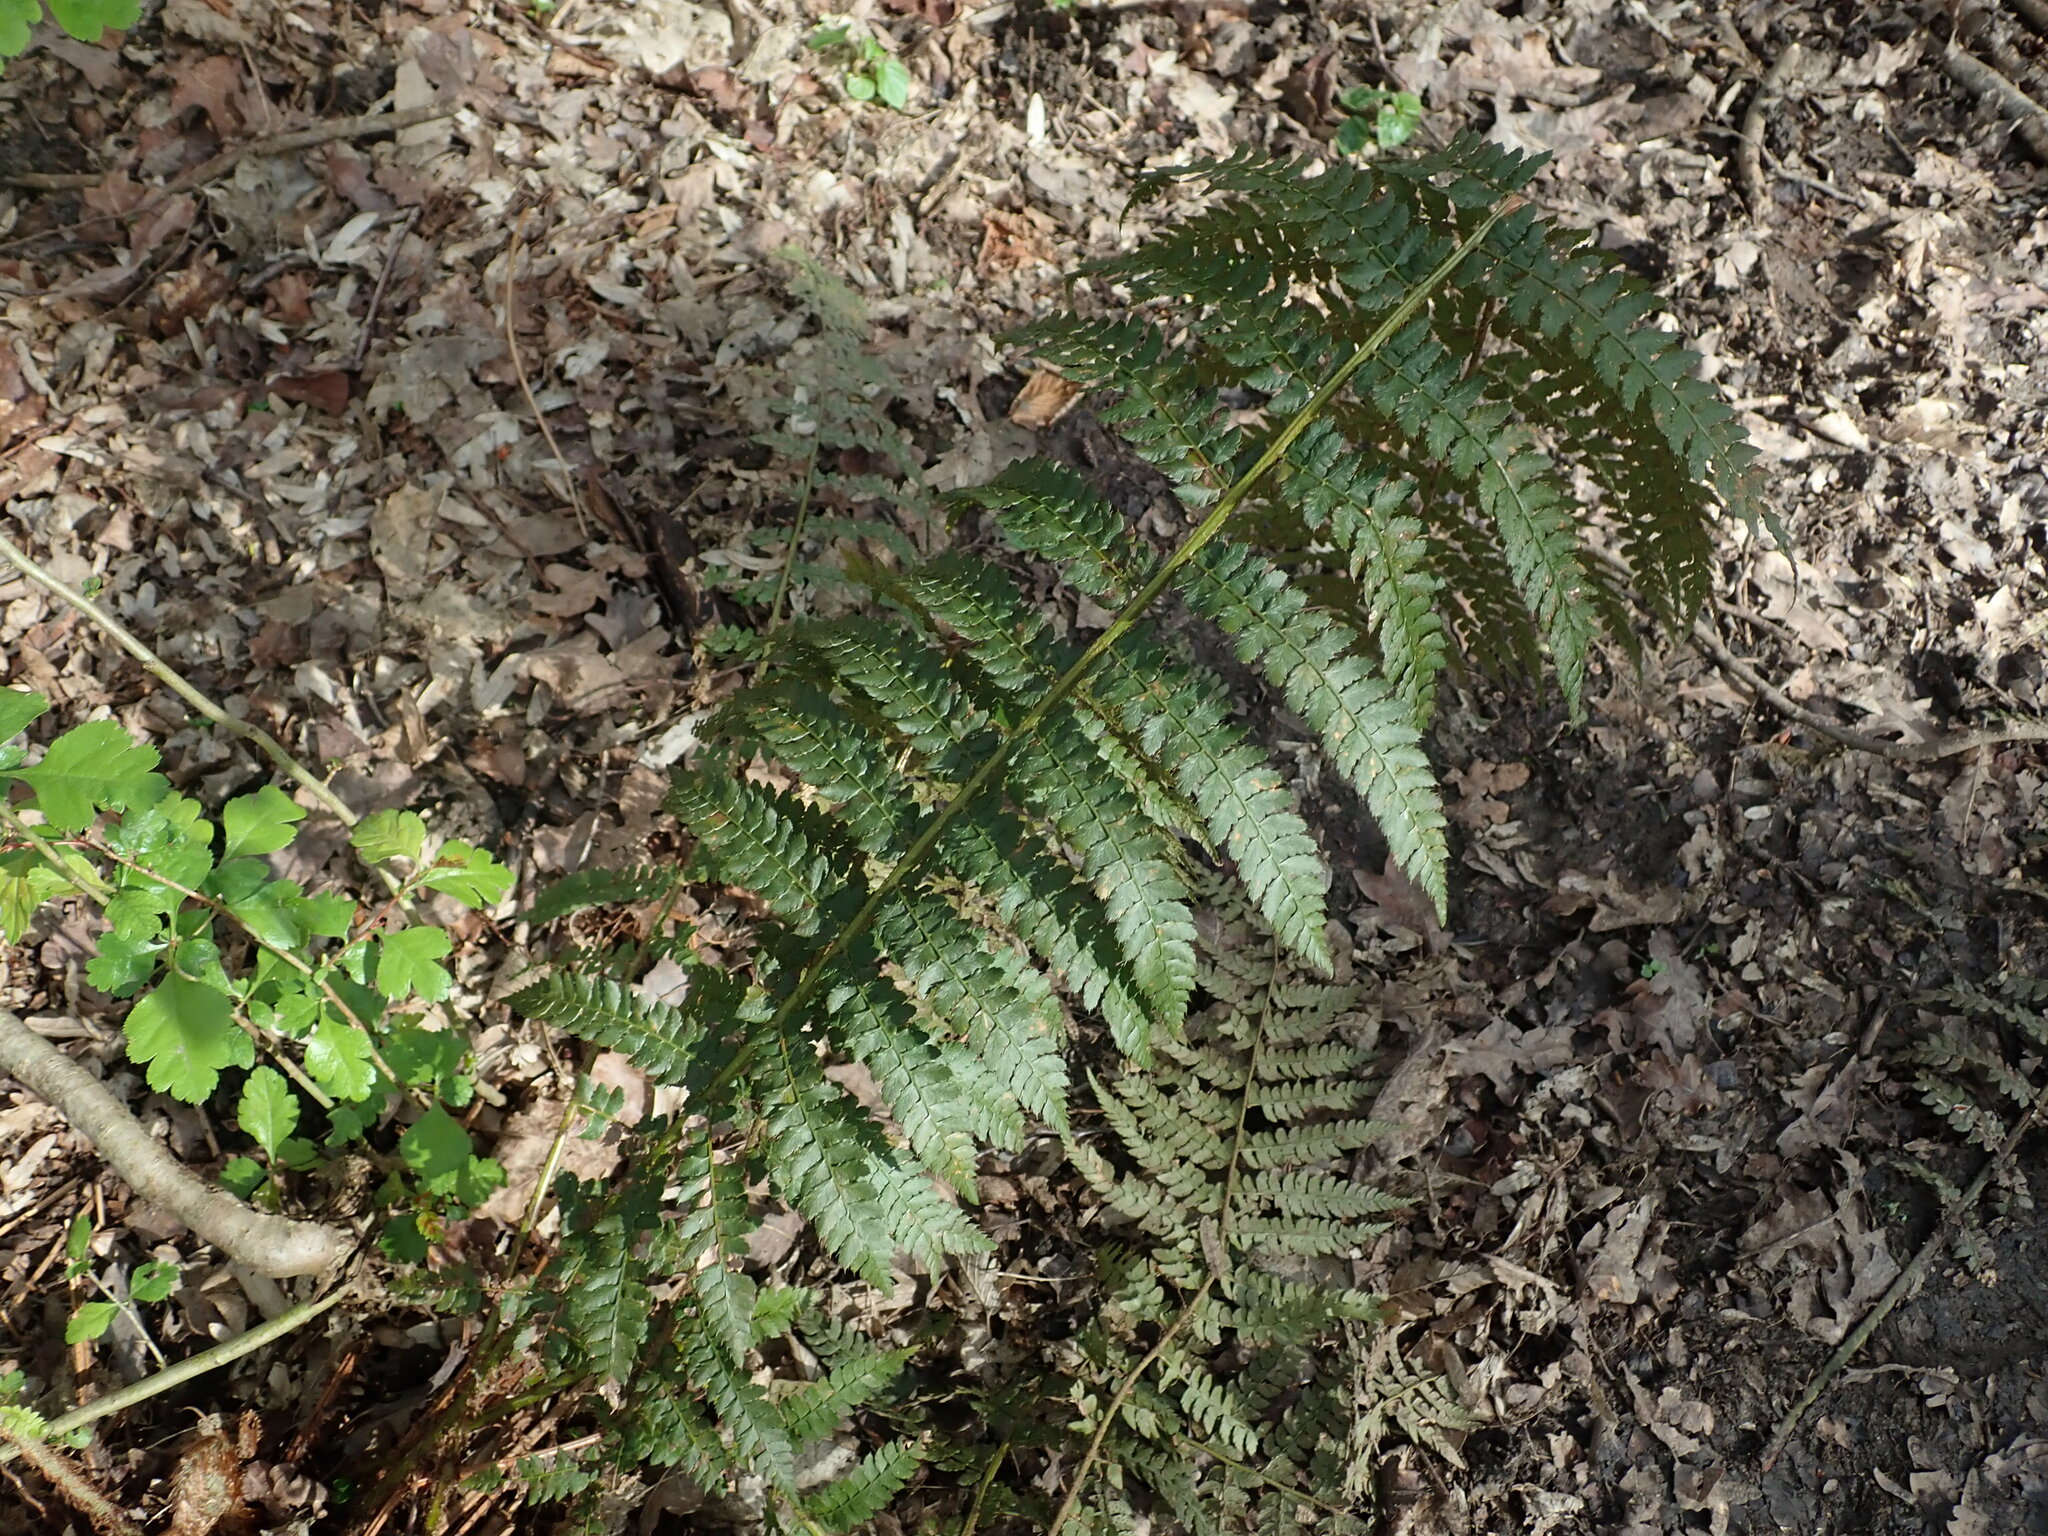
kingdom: Plantae
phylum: Tracheophyta
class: Polypodiopsida
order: Polypodiales
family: Dryopteridaceae
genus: Polystichum
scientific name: Polystichum setiferum
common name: Soft shield-fern
